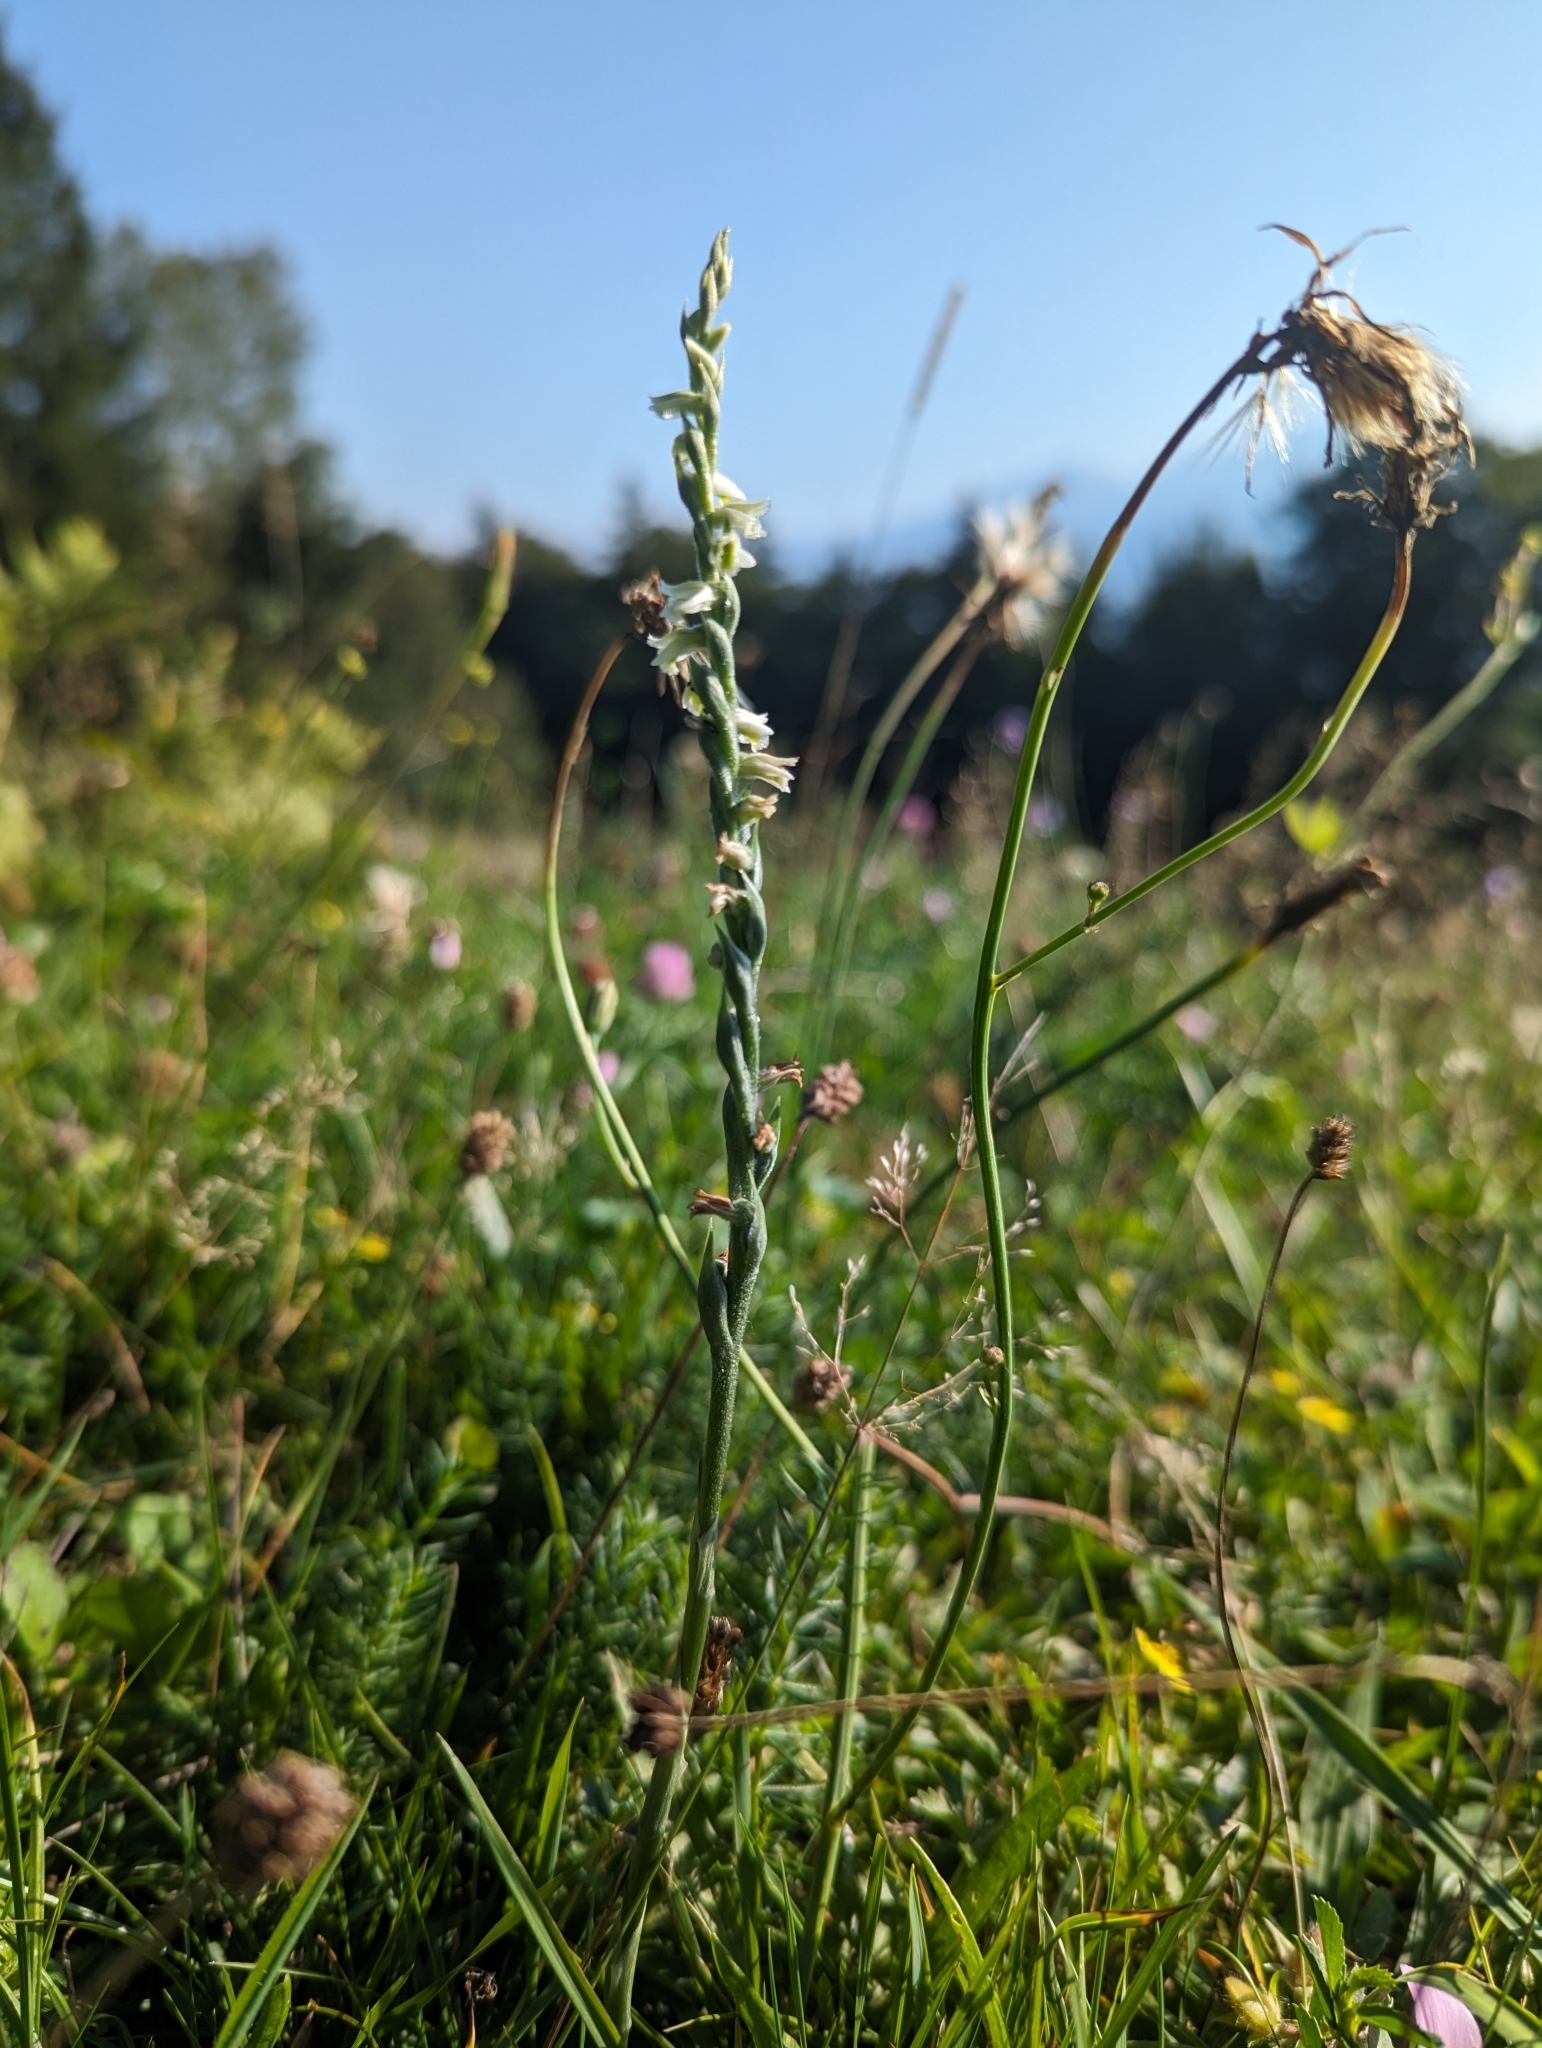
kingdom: Plantae
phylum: Tracheophyta
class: Liliopsida
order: Asparagales
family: Orchidaceae
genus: Spiranthes
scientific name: Spiranthes spiralis
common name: Autumn lady's-tresses
